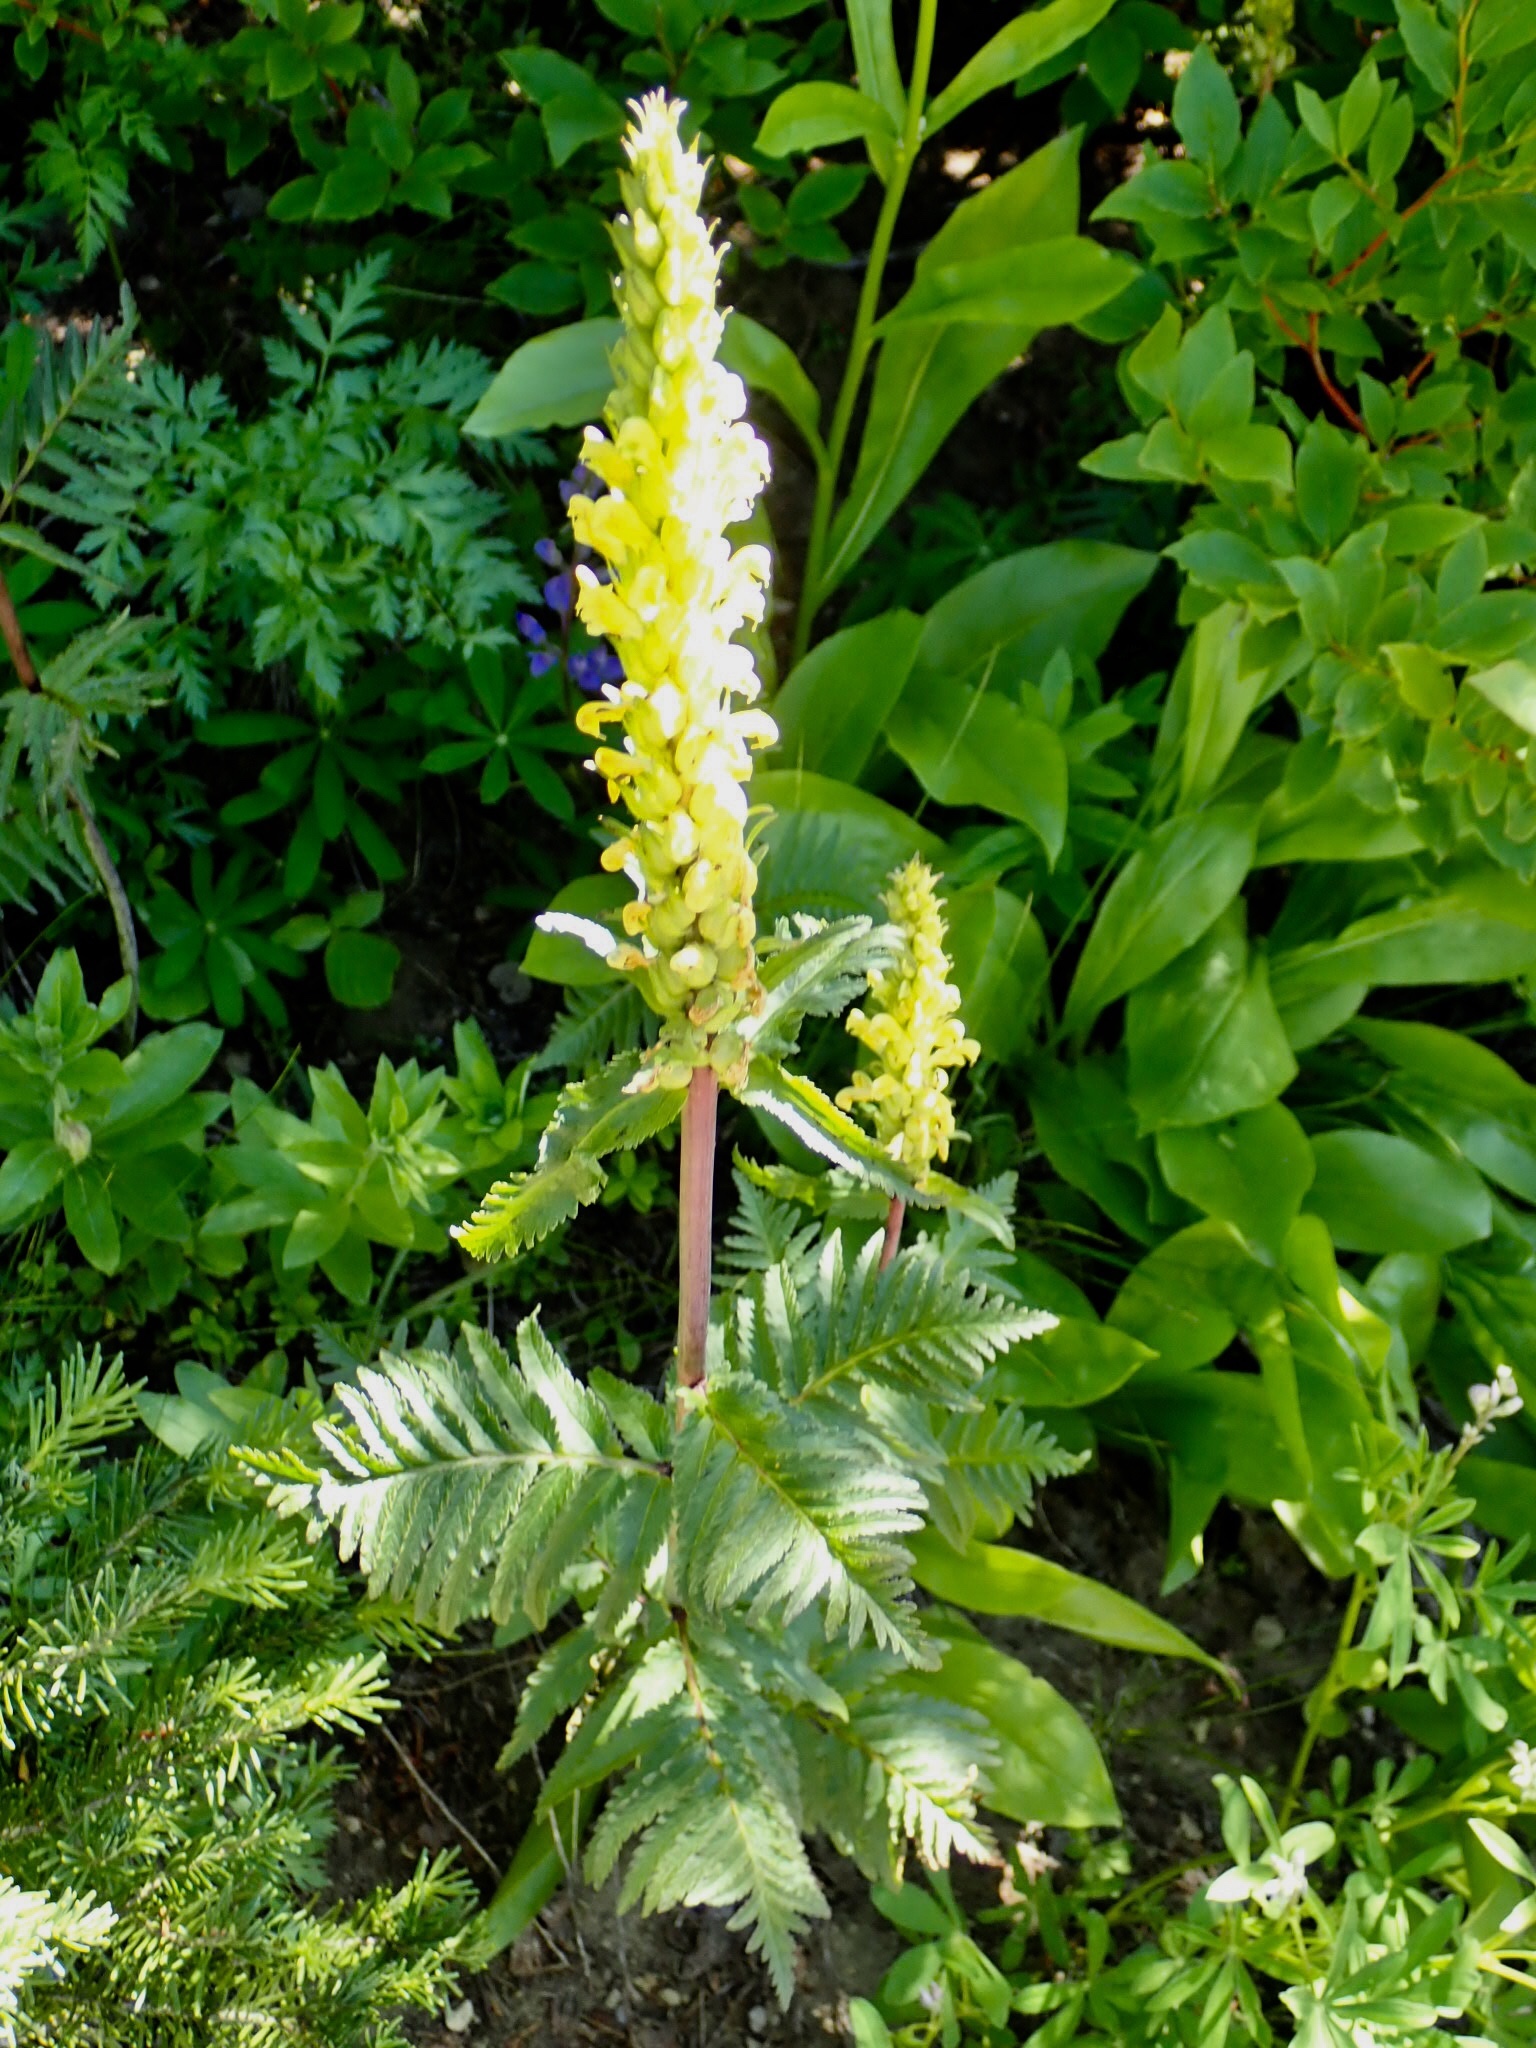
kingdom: Plantae
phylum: Tracheophyta
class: Magnoliopsida
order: Lamiales
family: Orobanchaceae
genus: Pedicularis
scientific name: Pedicularis bracteosa
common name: Bracted lousewort
